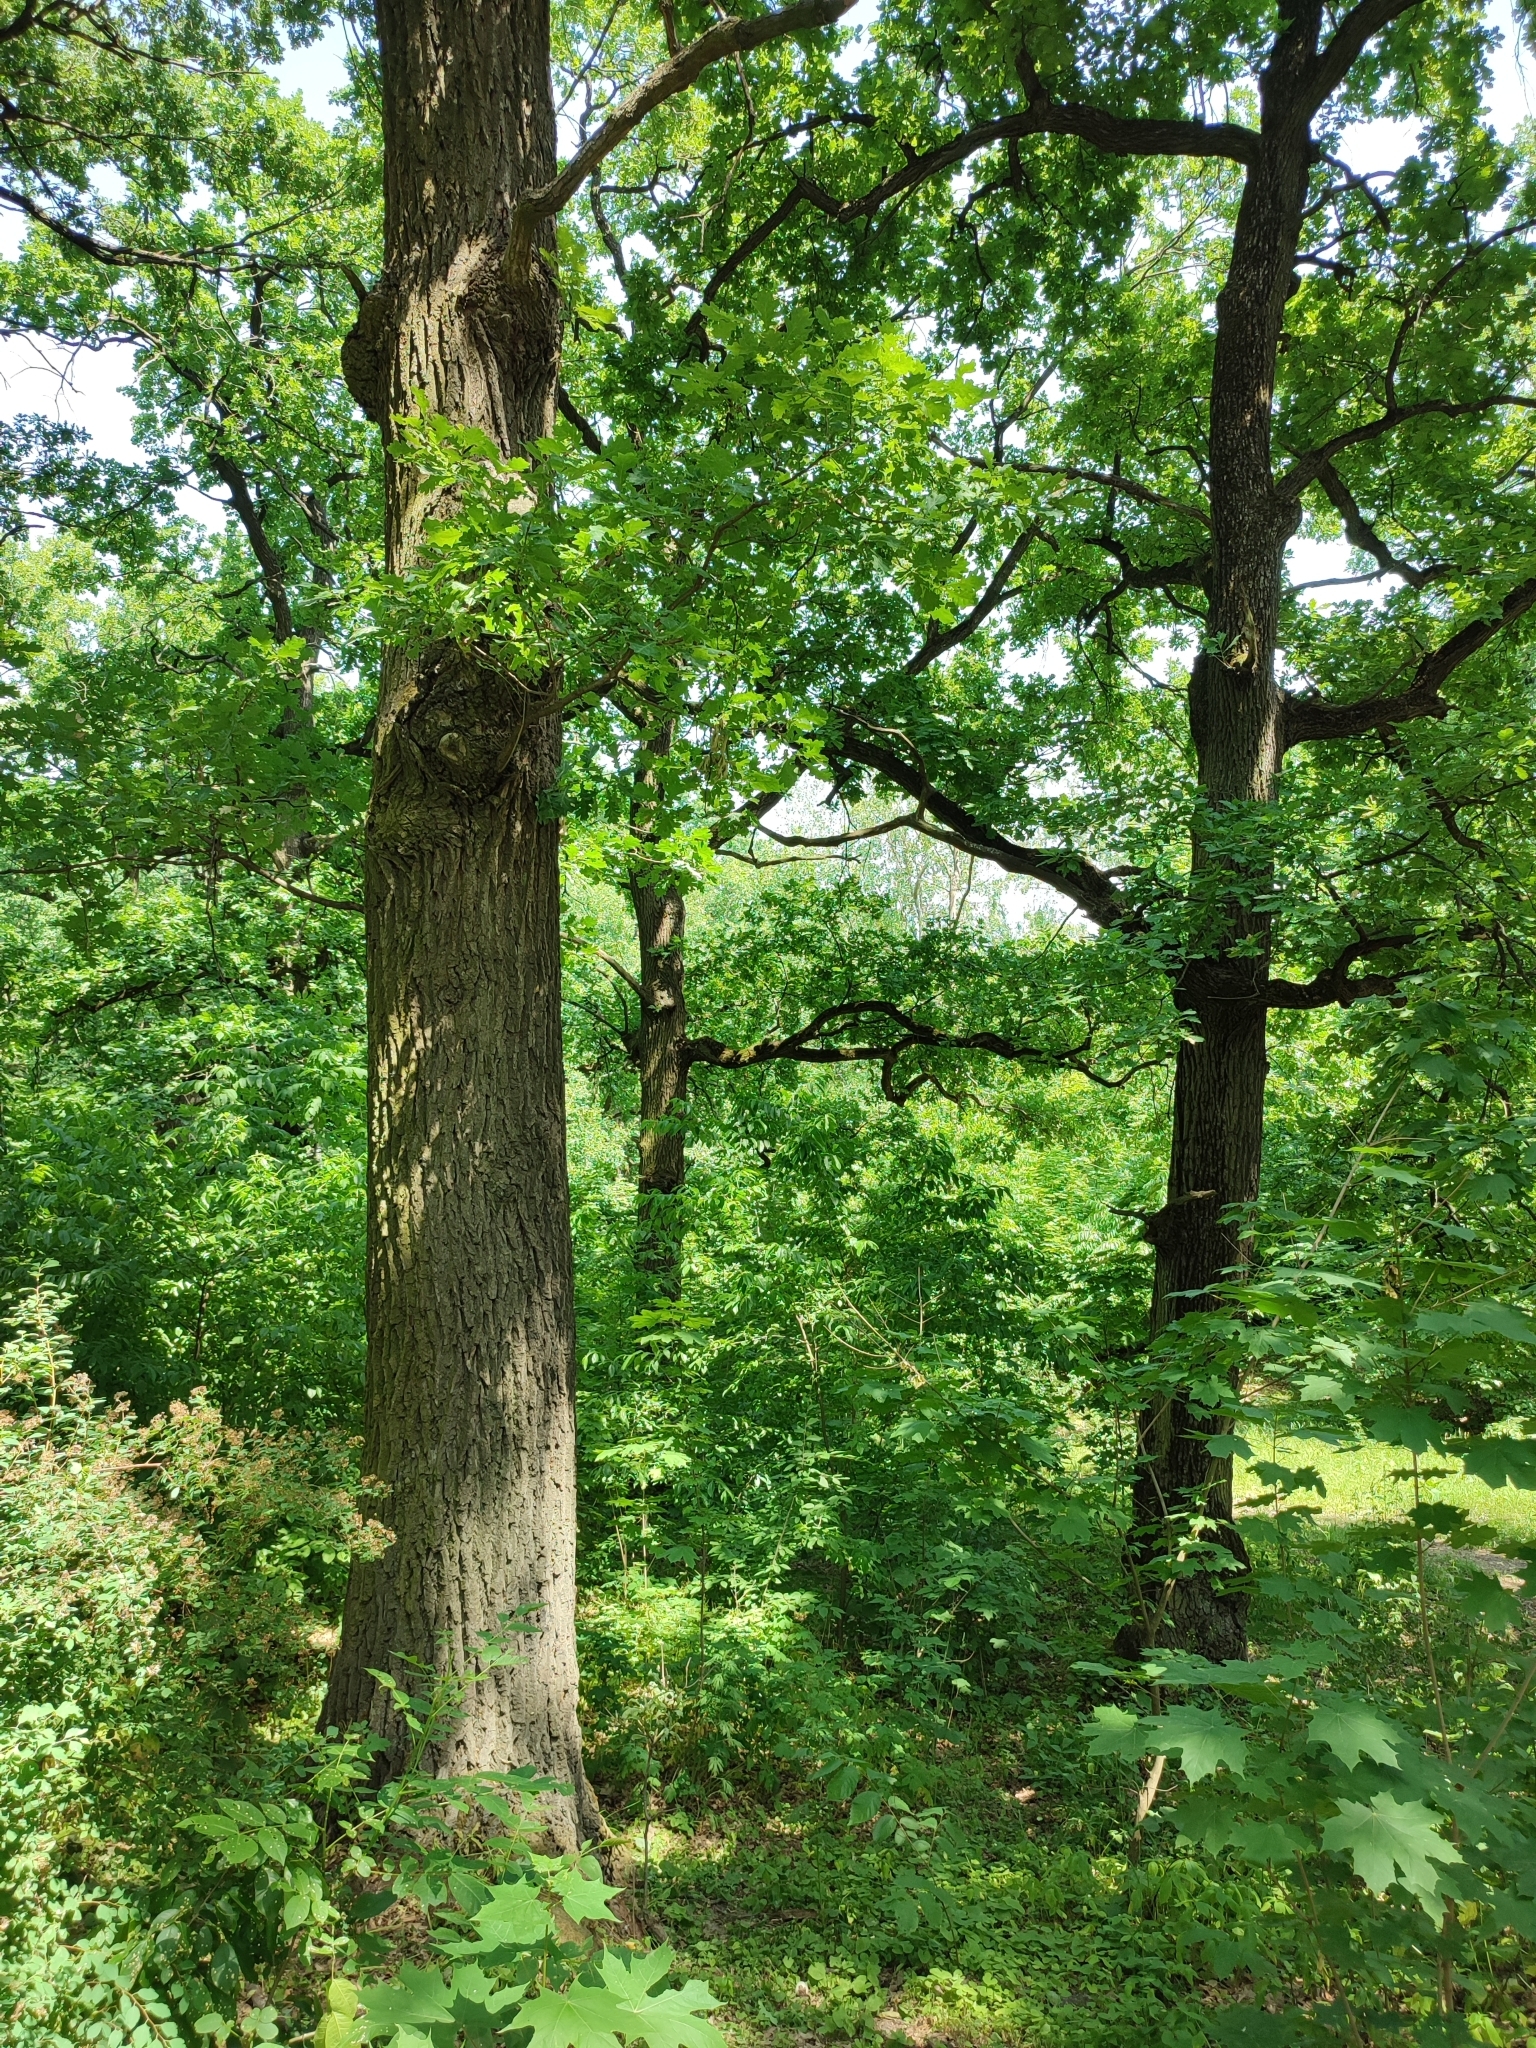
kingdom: Plantae
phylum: Tracheophyta
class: Magnoliopsida
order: Fagales
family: Fagaceae
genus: Quercus
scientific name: Quercus robur
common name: Pedunculate oak
